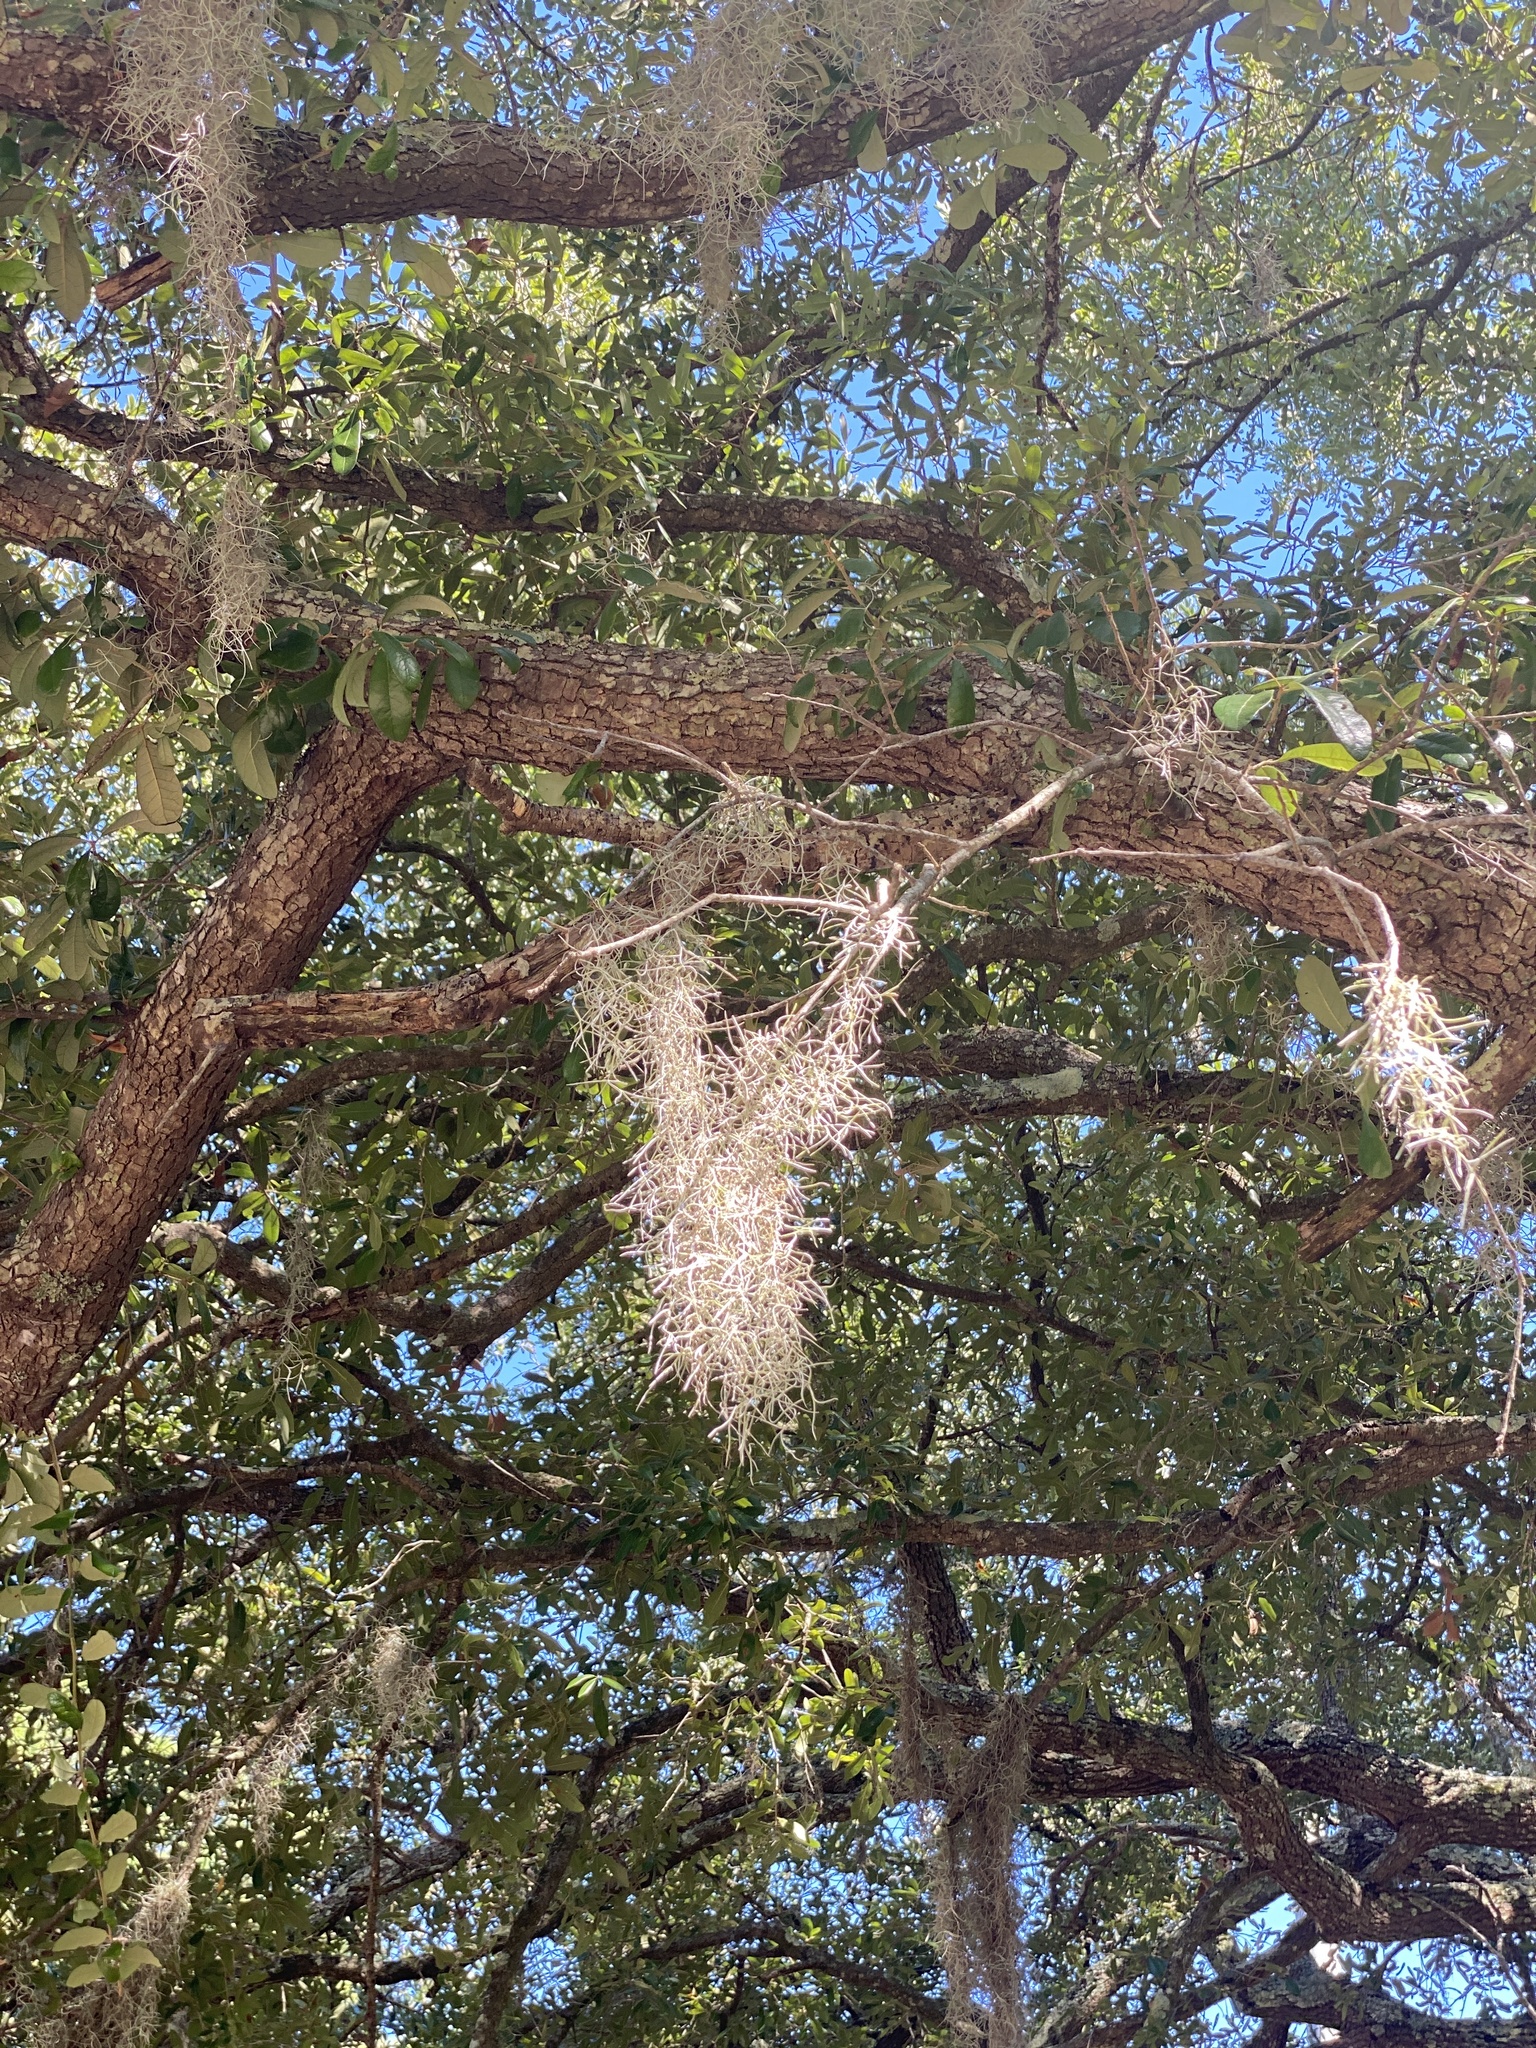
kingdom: Plantae
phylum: Tracheophyta
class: Liliopsida
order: Poales
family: Bromeliaceae
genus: Tillandsia
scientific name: Tillandsia usneoides
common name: Spanish moss
